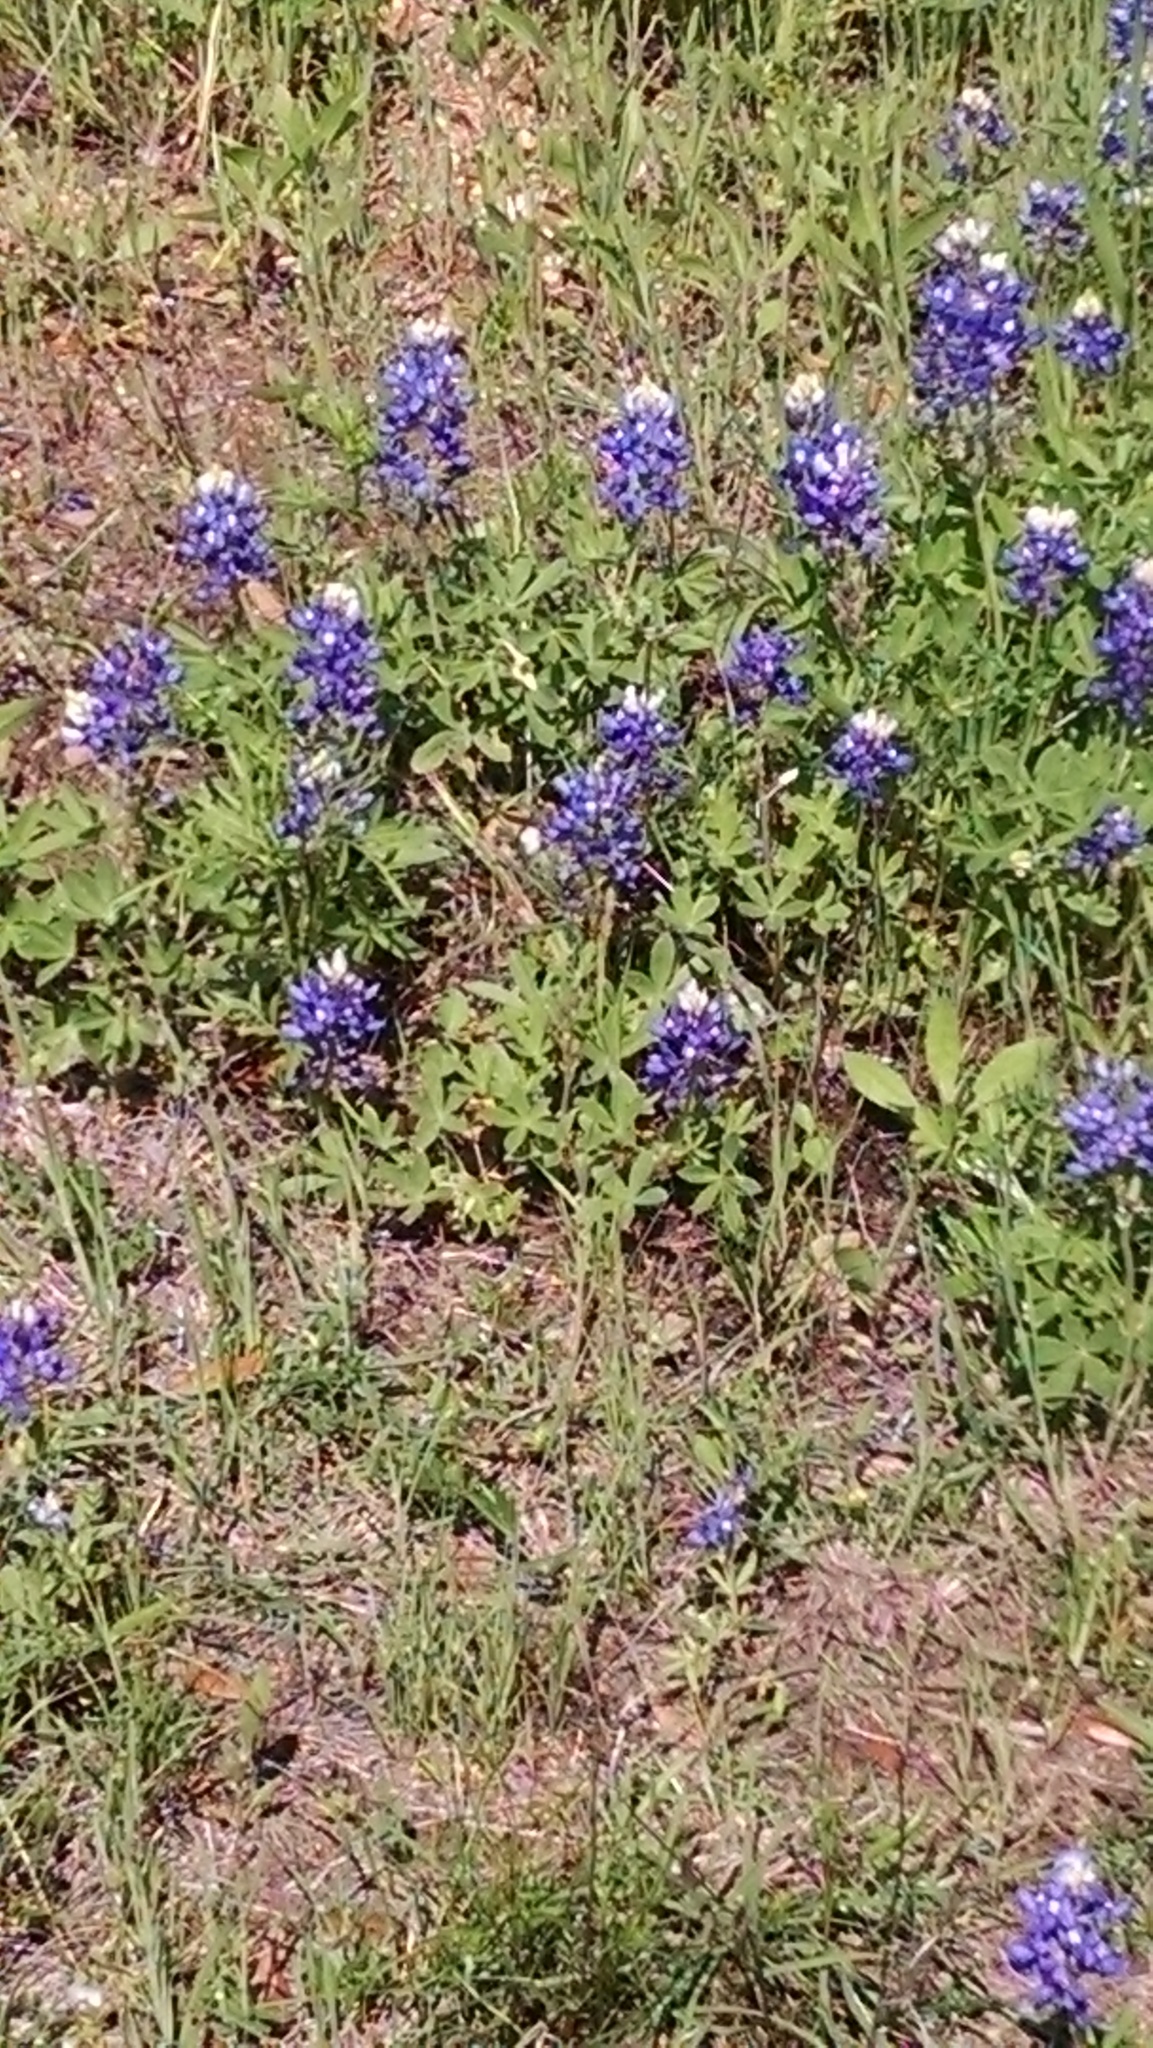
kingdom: Plantae
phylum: Tracheophyta
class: Magnoliopsida
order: Fabales
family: Fabaceae
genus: Lupinus
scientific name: Lupinus texensis
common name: Texas bluebonnet
